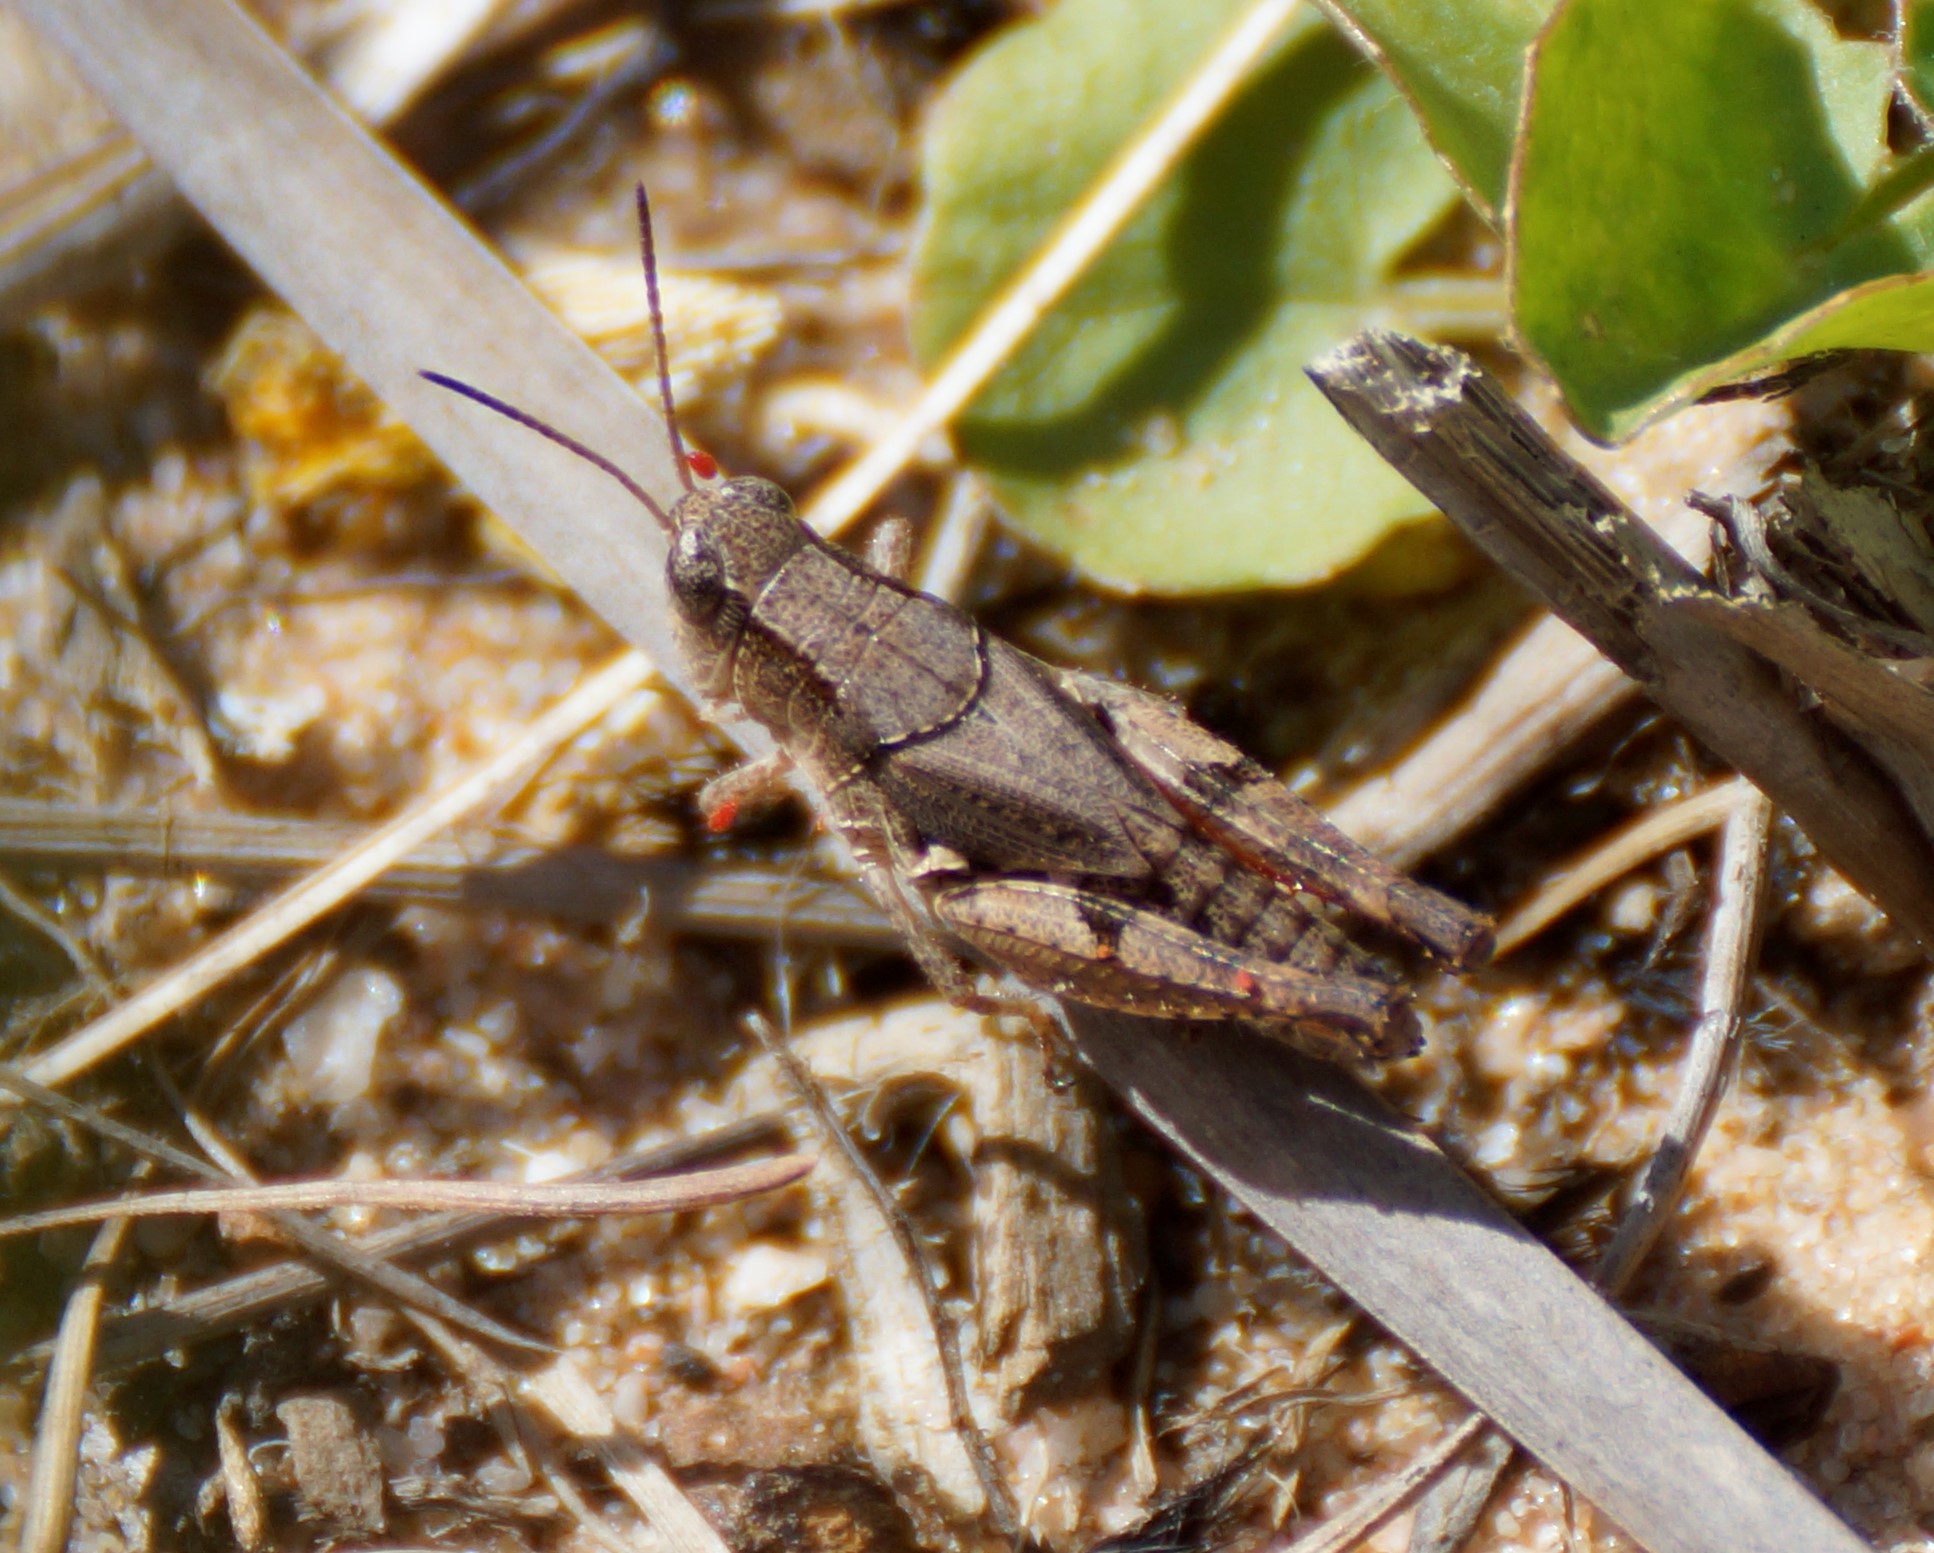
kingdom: Animalia
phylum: Arthropoda
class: Insecta
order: Orthoptera
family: Acrididae
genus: Phaulacridium
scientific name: Phaulacridium vittatum
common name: Wingless grasshopper
